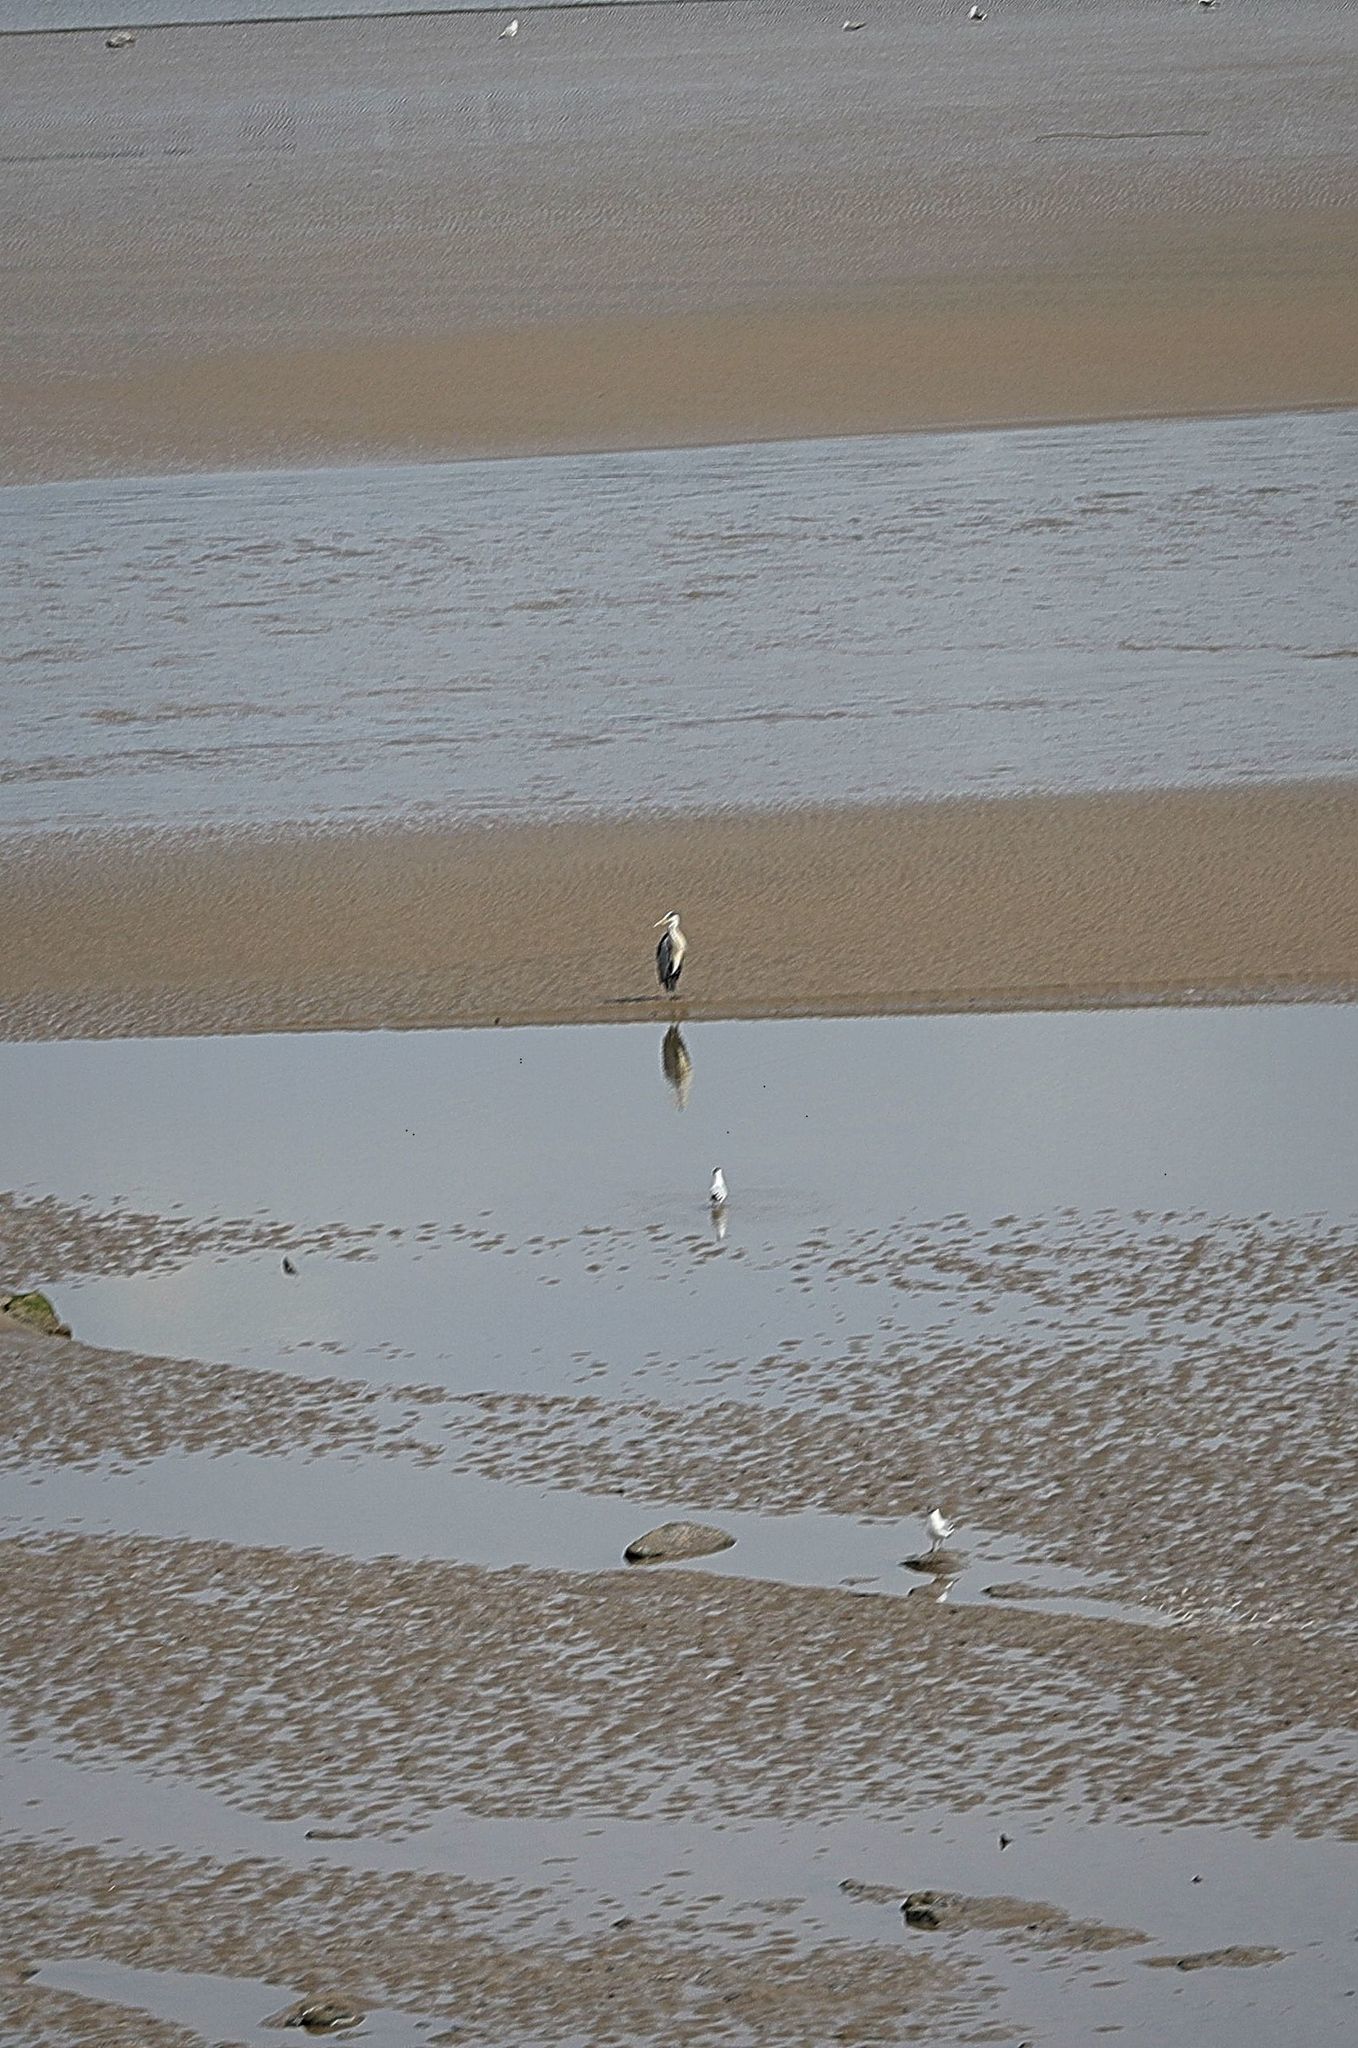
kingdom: Animalia
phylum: Chordata
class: Aves
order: Pelecaniformes
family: Ardeidae
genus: Ardea
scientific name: Ardea cinerea
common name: Grey heron
